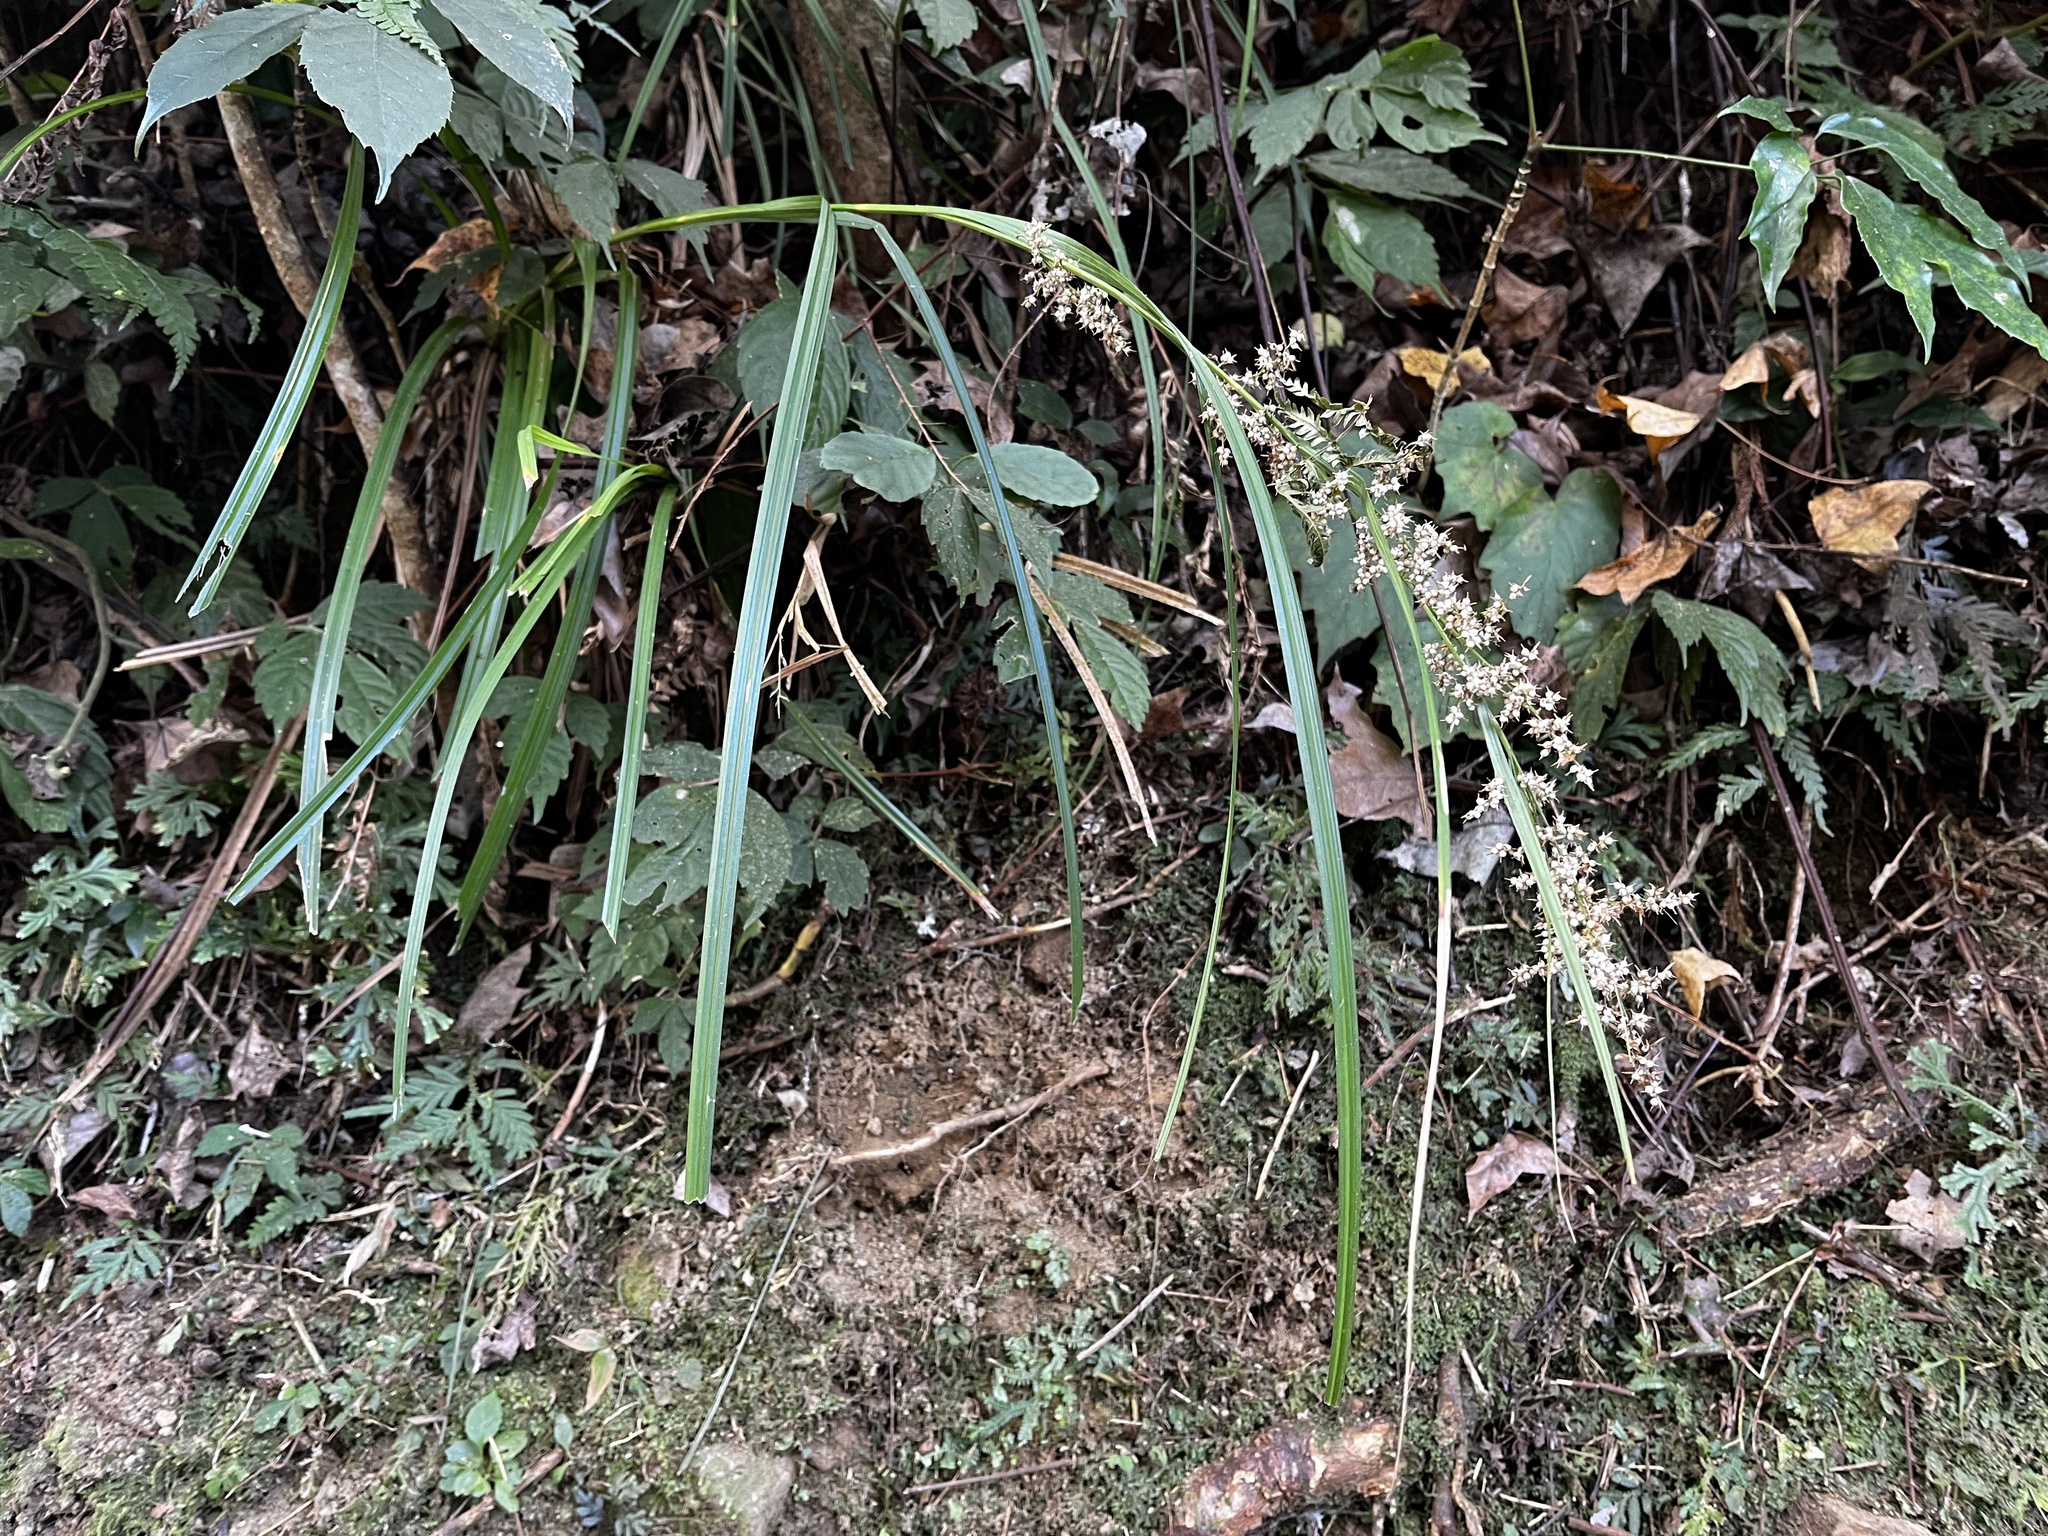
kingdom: Plantae
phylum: Tracheophyta
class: Liliopsida
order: Poales
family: Cyperaceae
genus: Carex
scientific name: Carex cruciata
